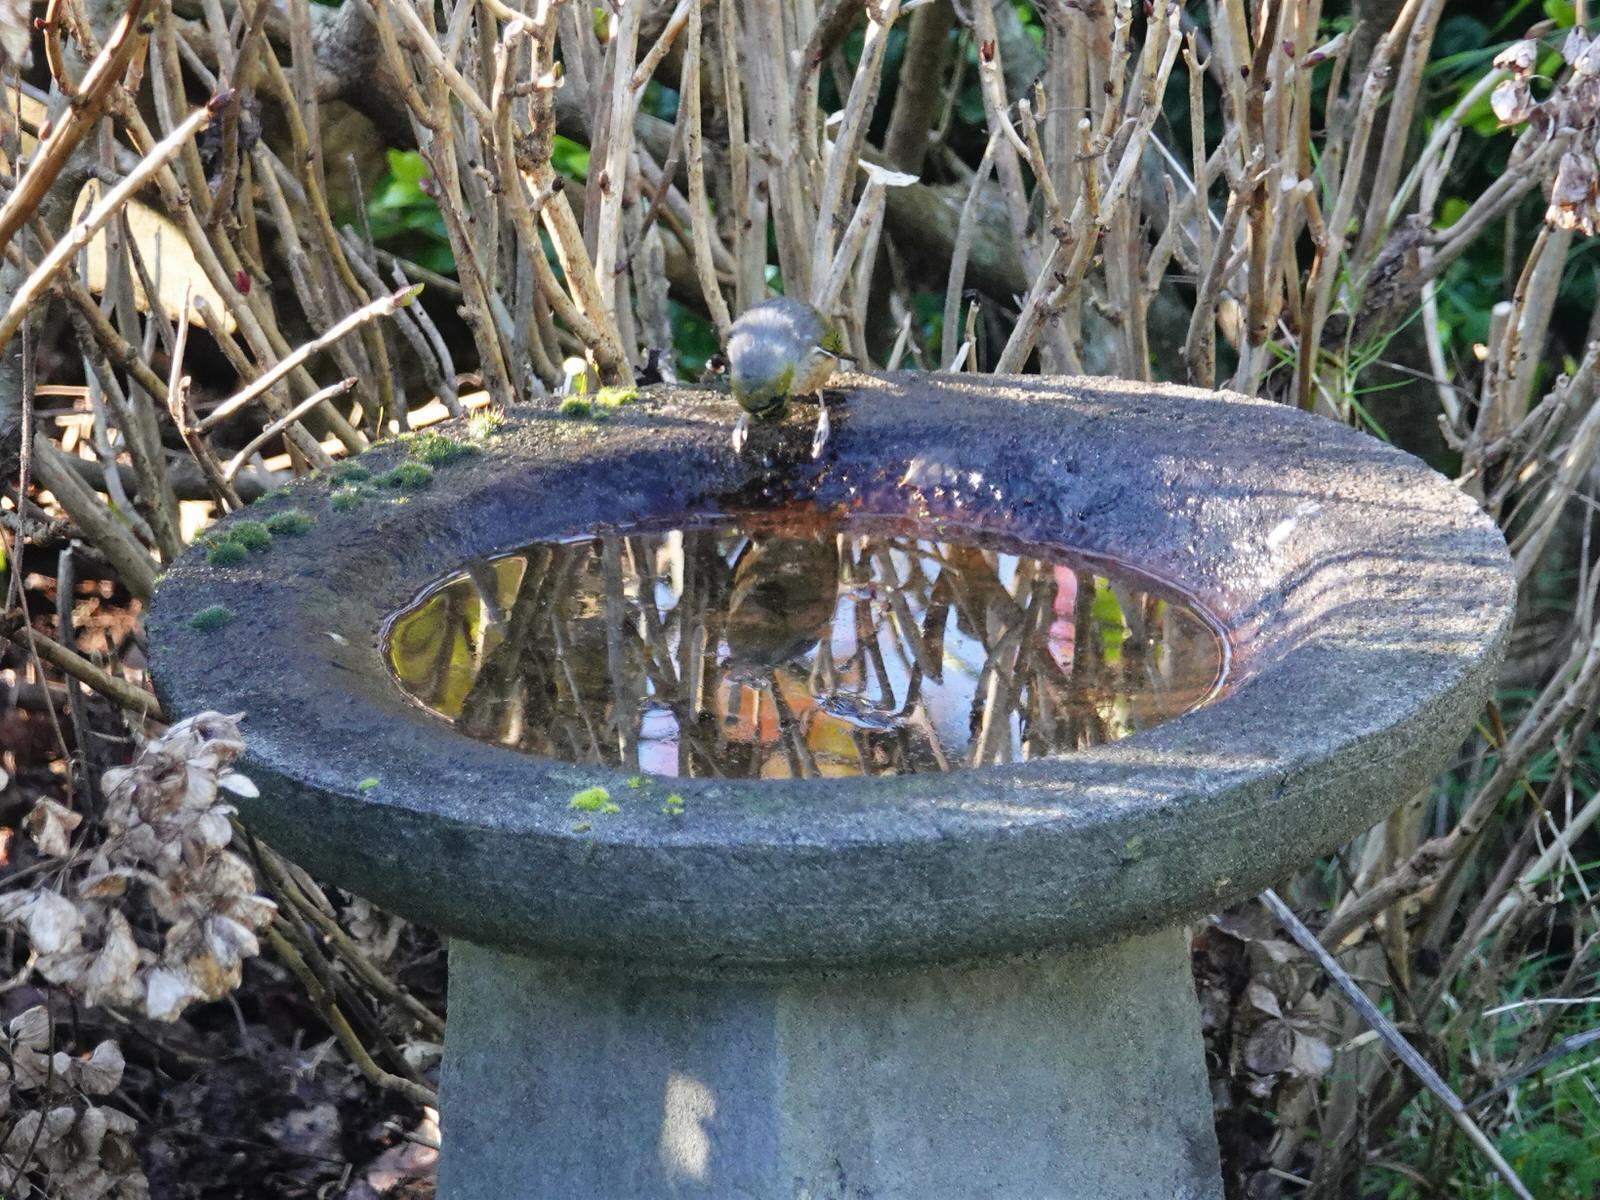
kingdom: Animalia
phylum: Chordata
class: Aves
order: Passeriformes
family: Zosteropidae
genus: Zosterops
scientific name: Zosterops lateralis
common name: Silvereye
